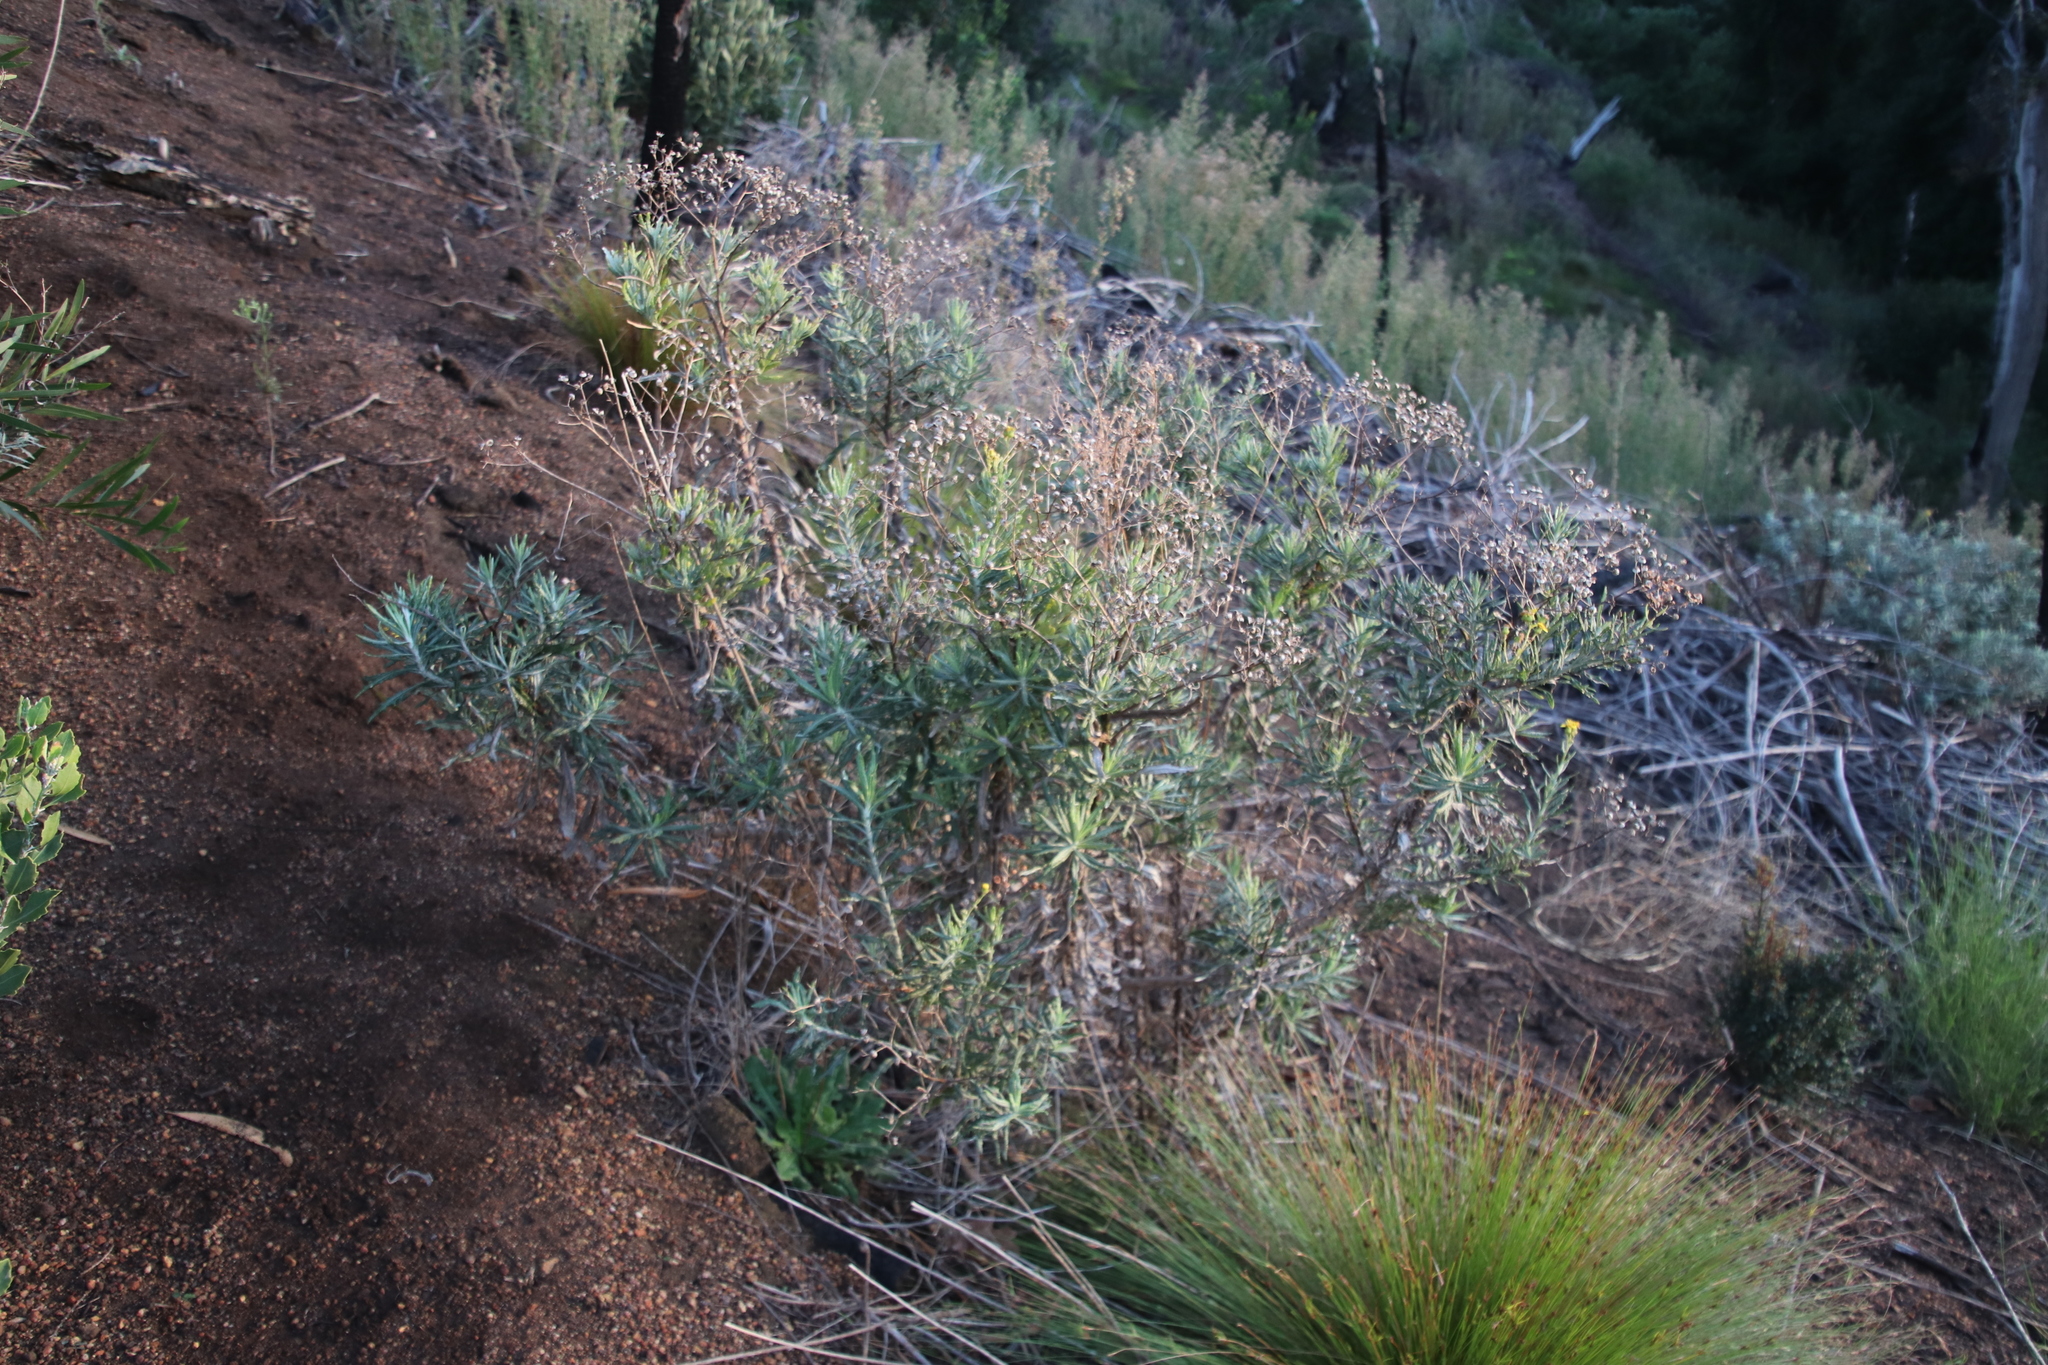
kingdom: Plantae
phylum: Tracheophyta
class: Magnoliopsida
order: Asterales
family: Asteraceae
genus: Senecio
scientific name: Senecio pterophorus
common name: Shoddy ragwort
